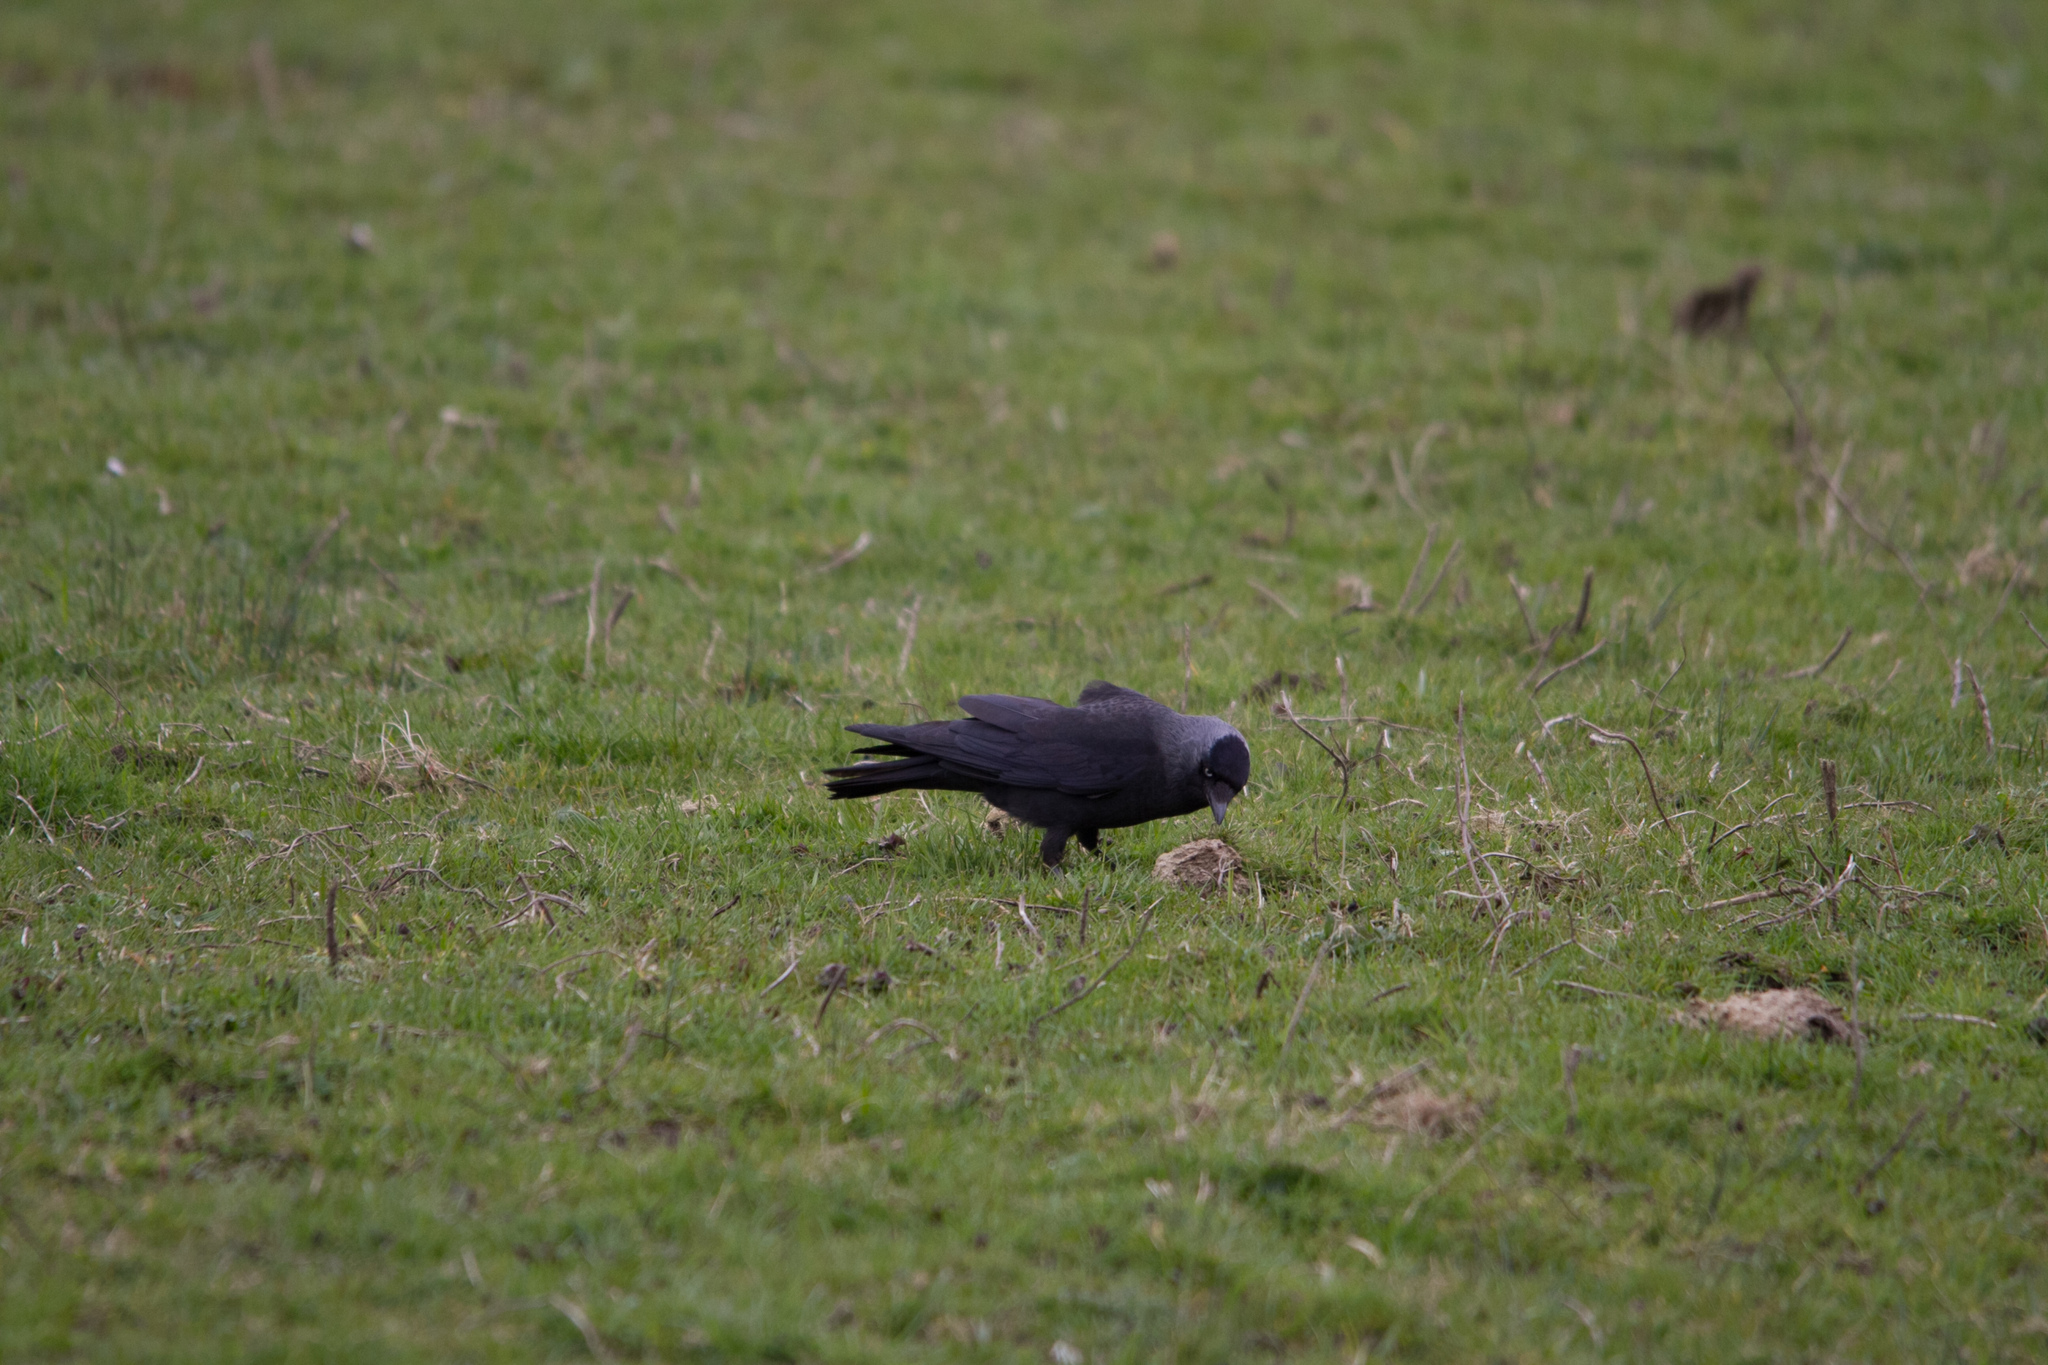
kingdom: Animalia
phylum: Chordata
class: Aves
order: Passeriformes
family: Corvidae
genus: Coloeus
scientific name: Coloeus monedula
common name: Western jackdaw
